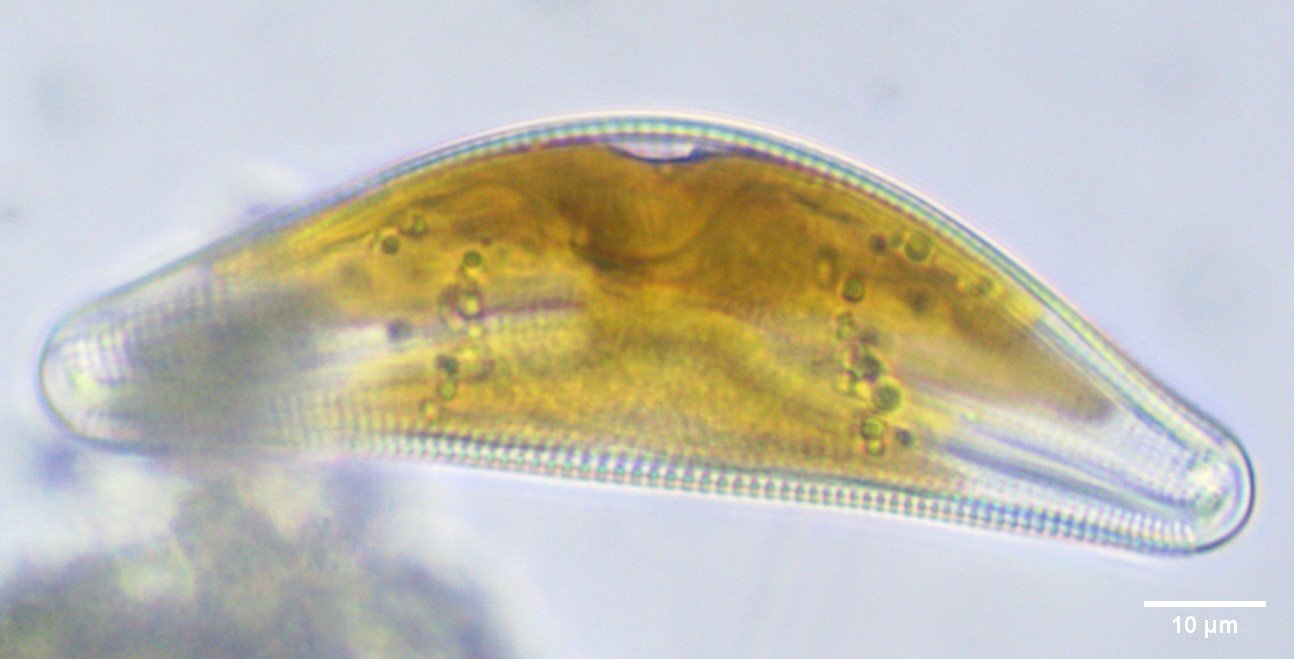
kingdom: Chromista
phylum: Ochrophyta
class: Bacillariophyceae
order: Cymbellales
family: Cymbellaceae
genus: Cymbella
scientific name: Cymbella mesiana
